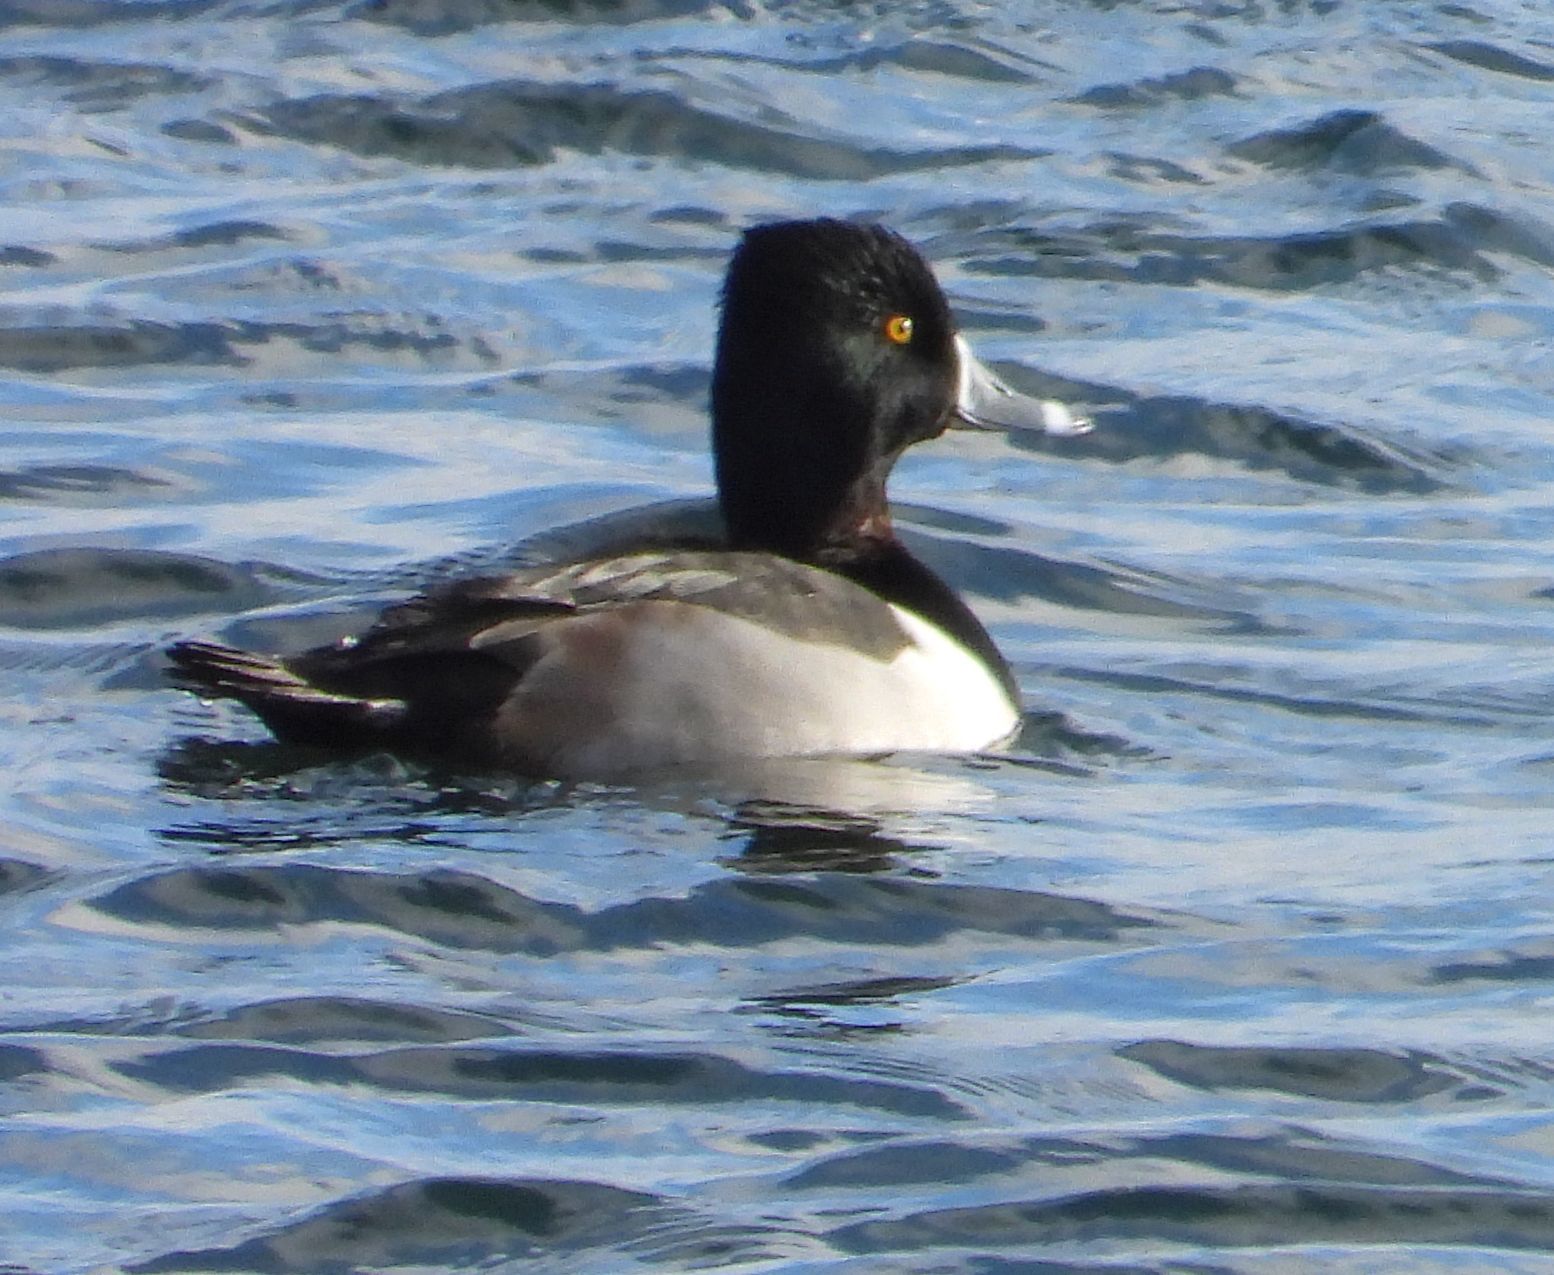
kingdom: Animalia
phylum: Chordata
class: Aves
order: Anseriformes
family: Anatidae
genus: Aythya
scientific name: Aythya collaris
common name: Ring-necked duck
